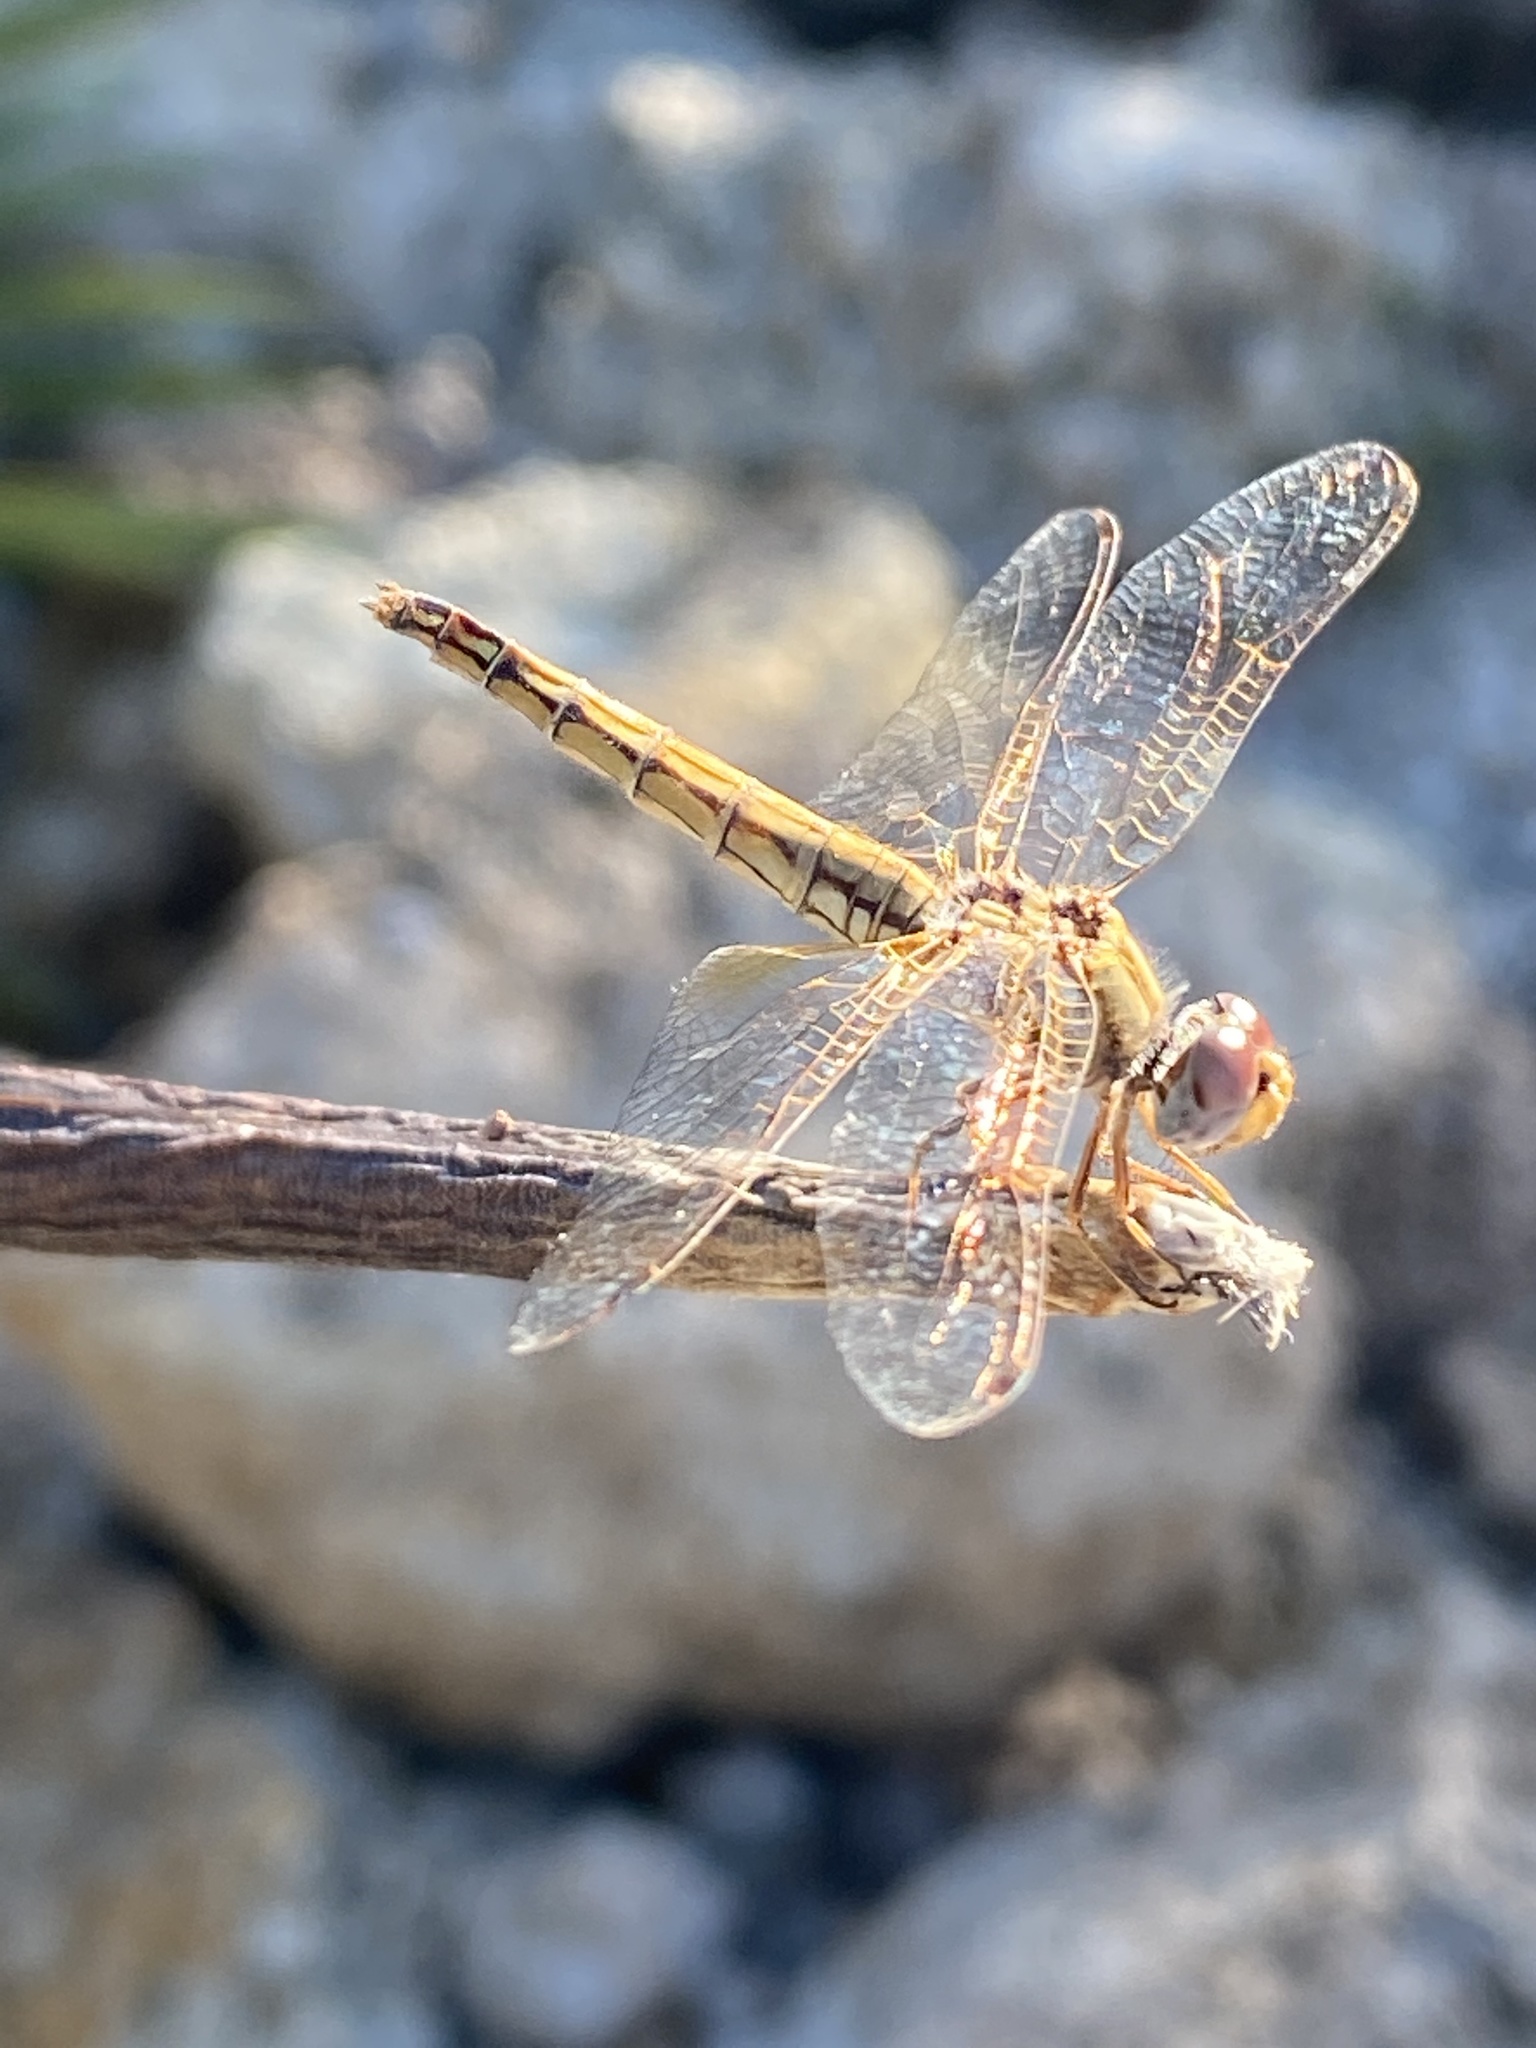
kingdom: Animalia
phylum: Arthropoda
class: Insecta
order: Odonata
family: Libellulidae
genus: Trithemis
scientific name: Trithemis kirbyi
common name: Kirby's dropwing
